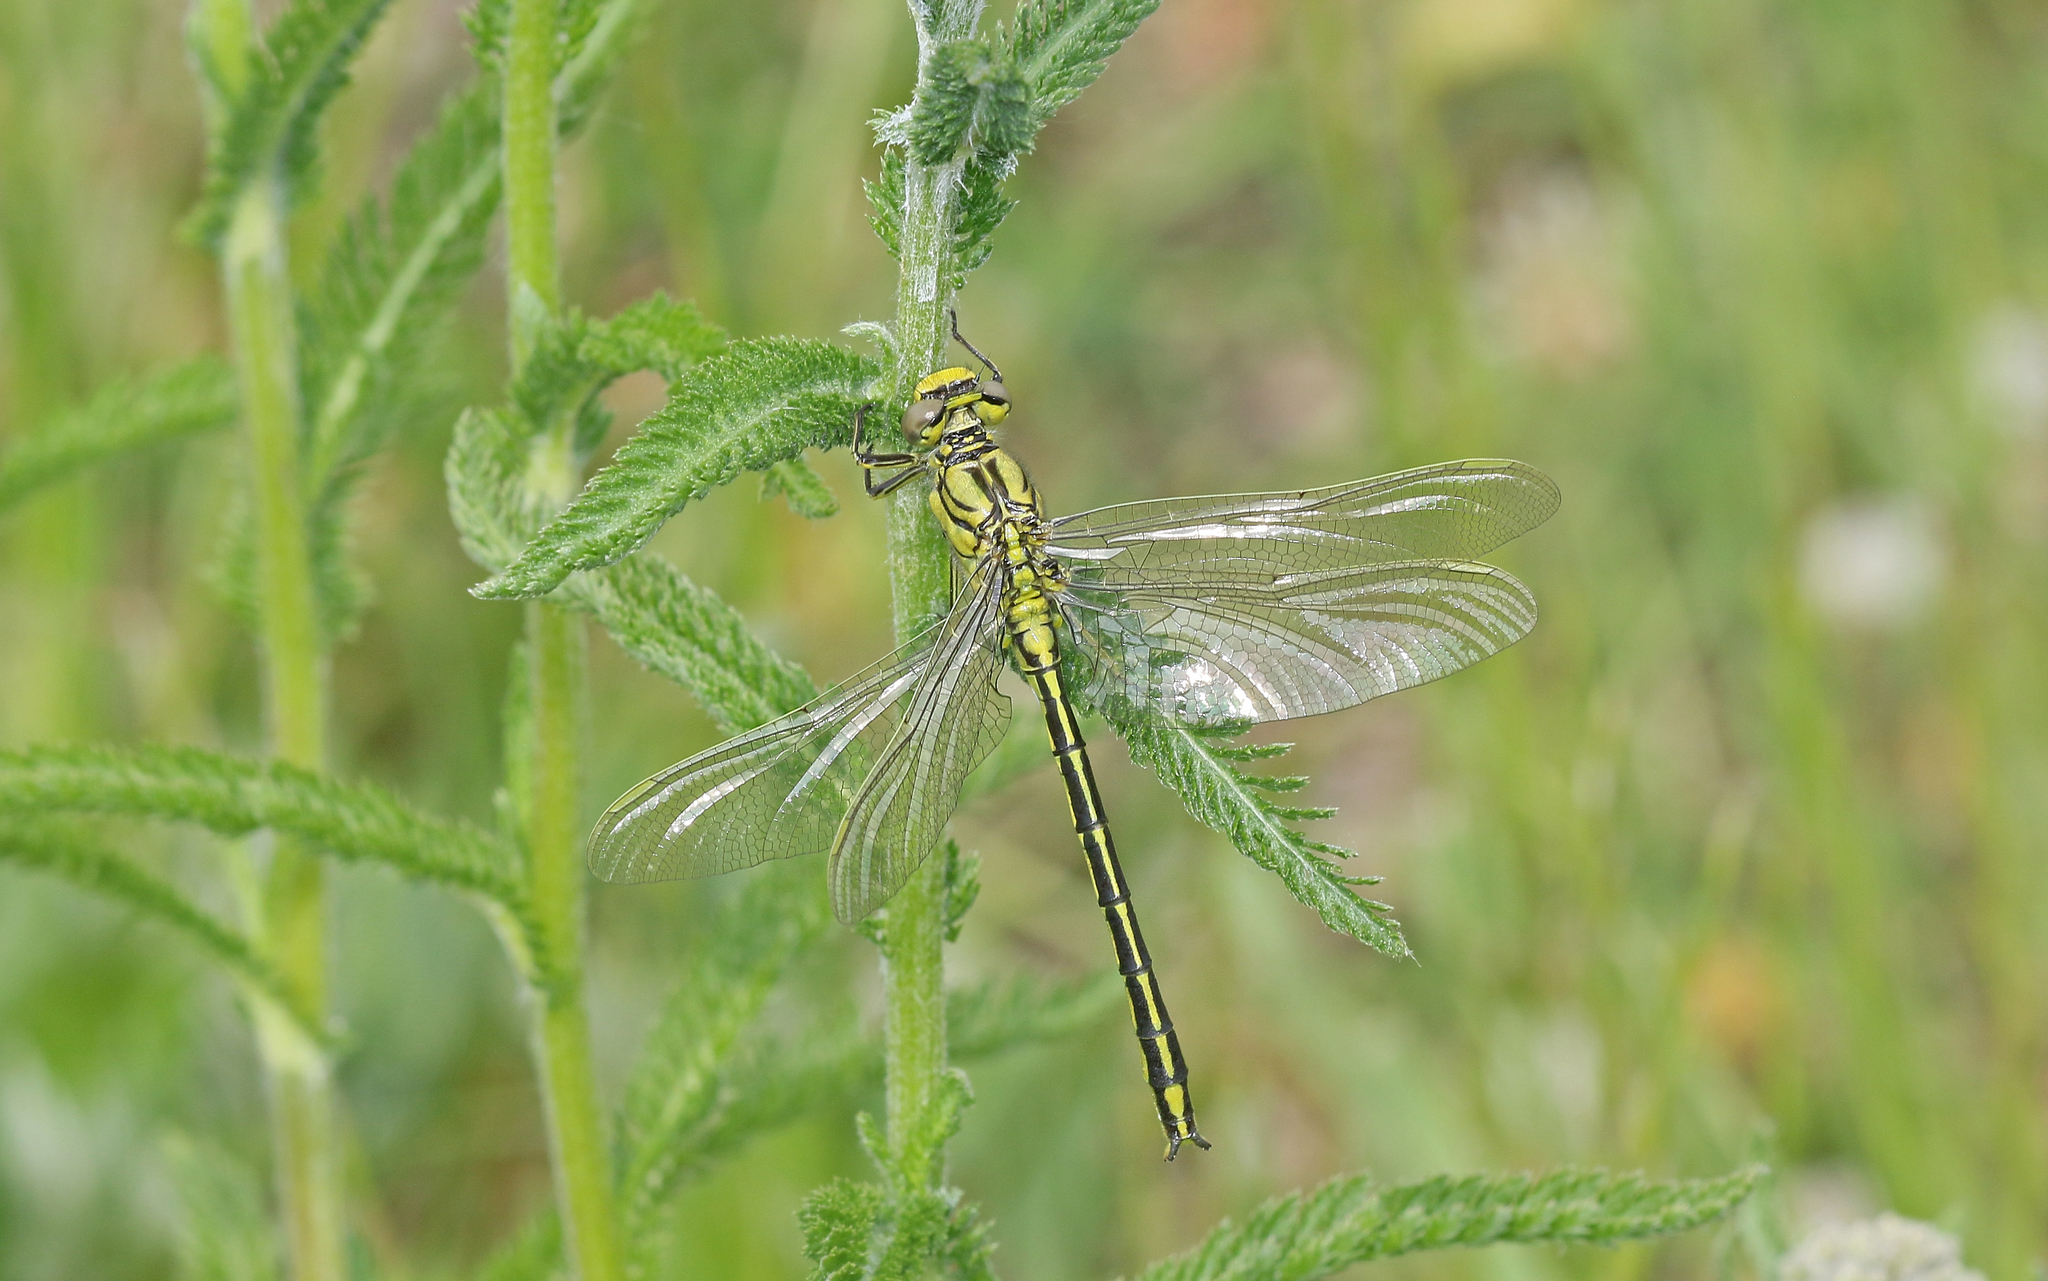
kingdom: Animalia
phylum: Arthropoda
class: Insecta
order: Odonata
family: Gomphidae
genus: Gomphus
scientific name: Gomphus pulchellus
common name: Western clubtail
